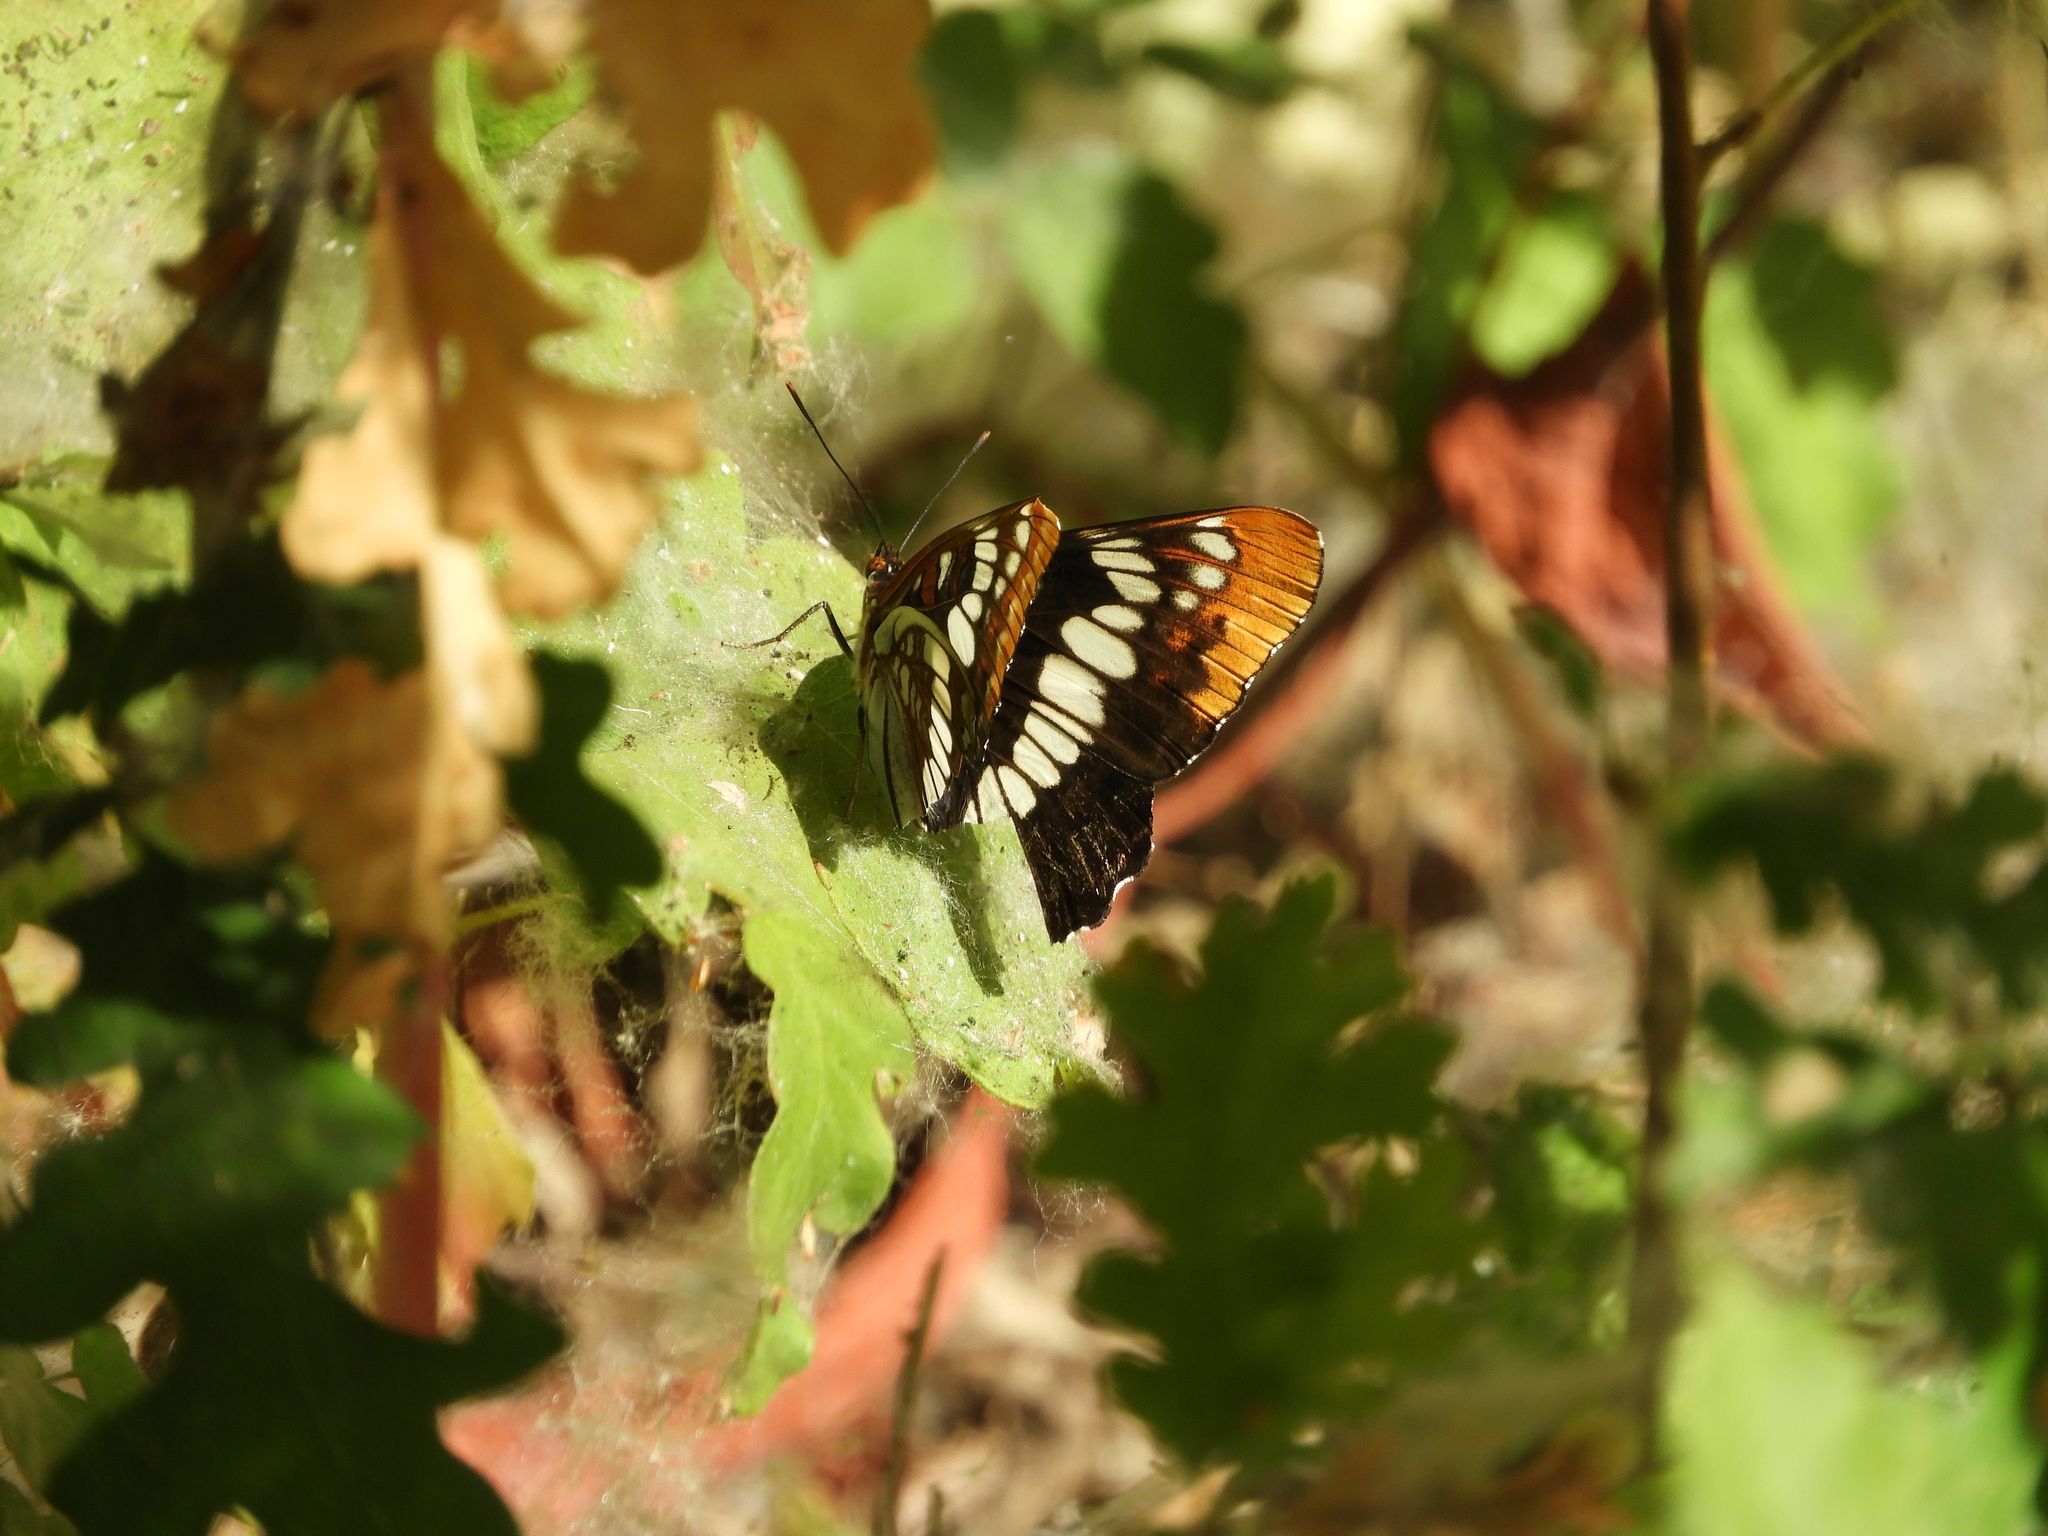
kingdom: Animalia
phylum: Arthropoda
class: Insecta
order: Lepidoptera
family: Nymphalidae
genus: Limenitis
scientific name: Limenitis lorquini
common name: Lorquin's admiral
